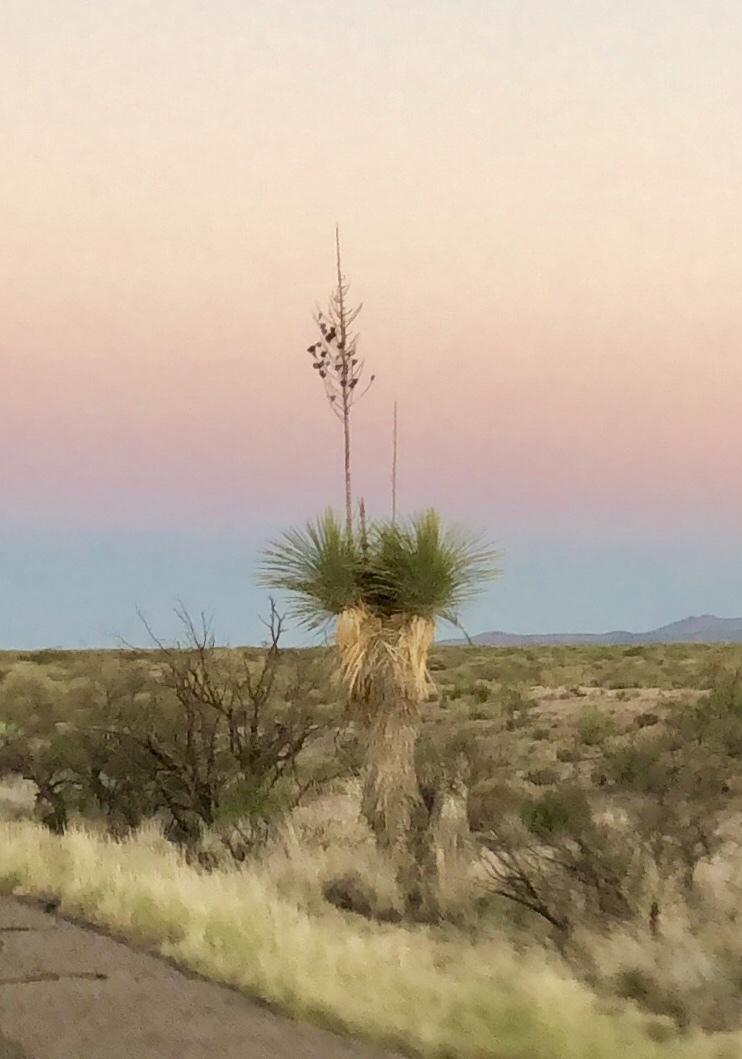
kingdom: Plantae
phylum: Tracheophyta
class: Liliopsida
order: Asparagales
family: Asparagaceae
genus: Yucca
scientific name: Yucca elata
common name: Palmella
